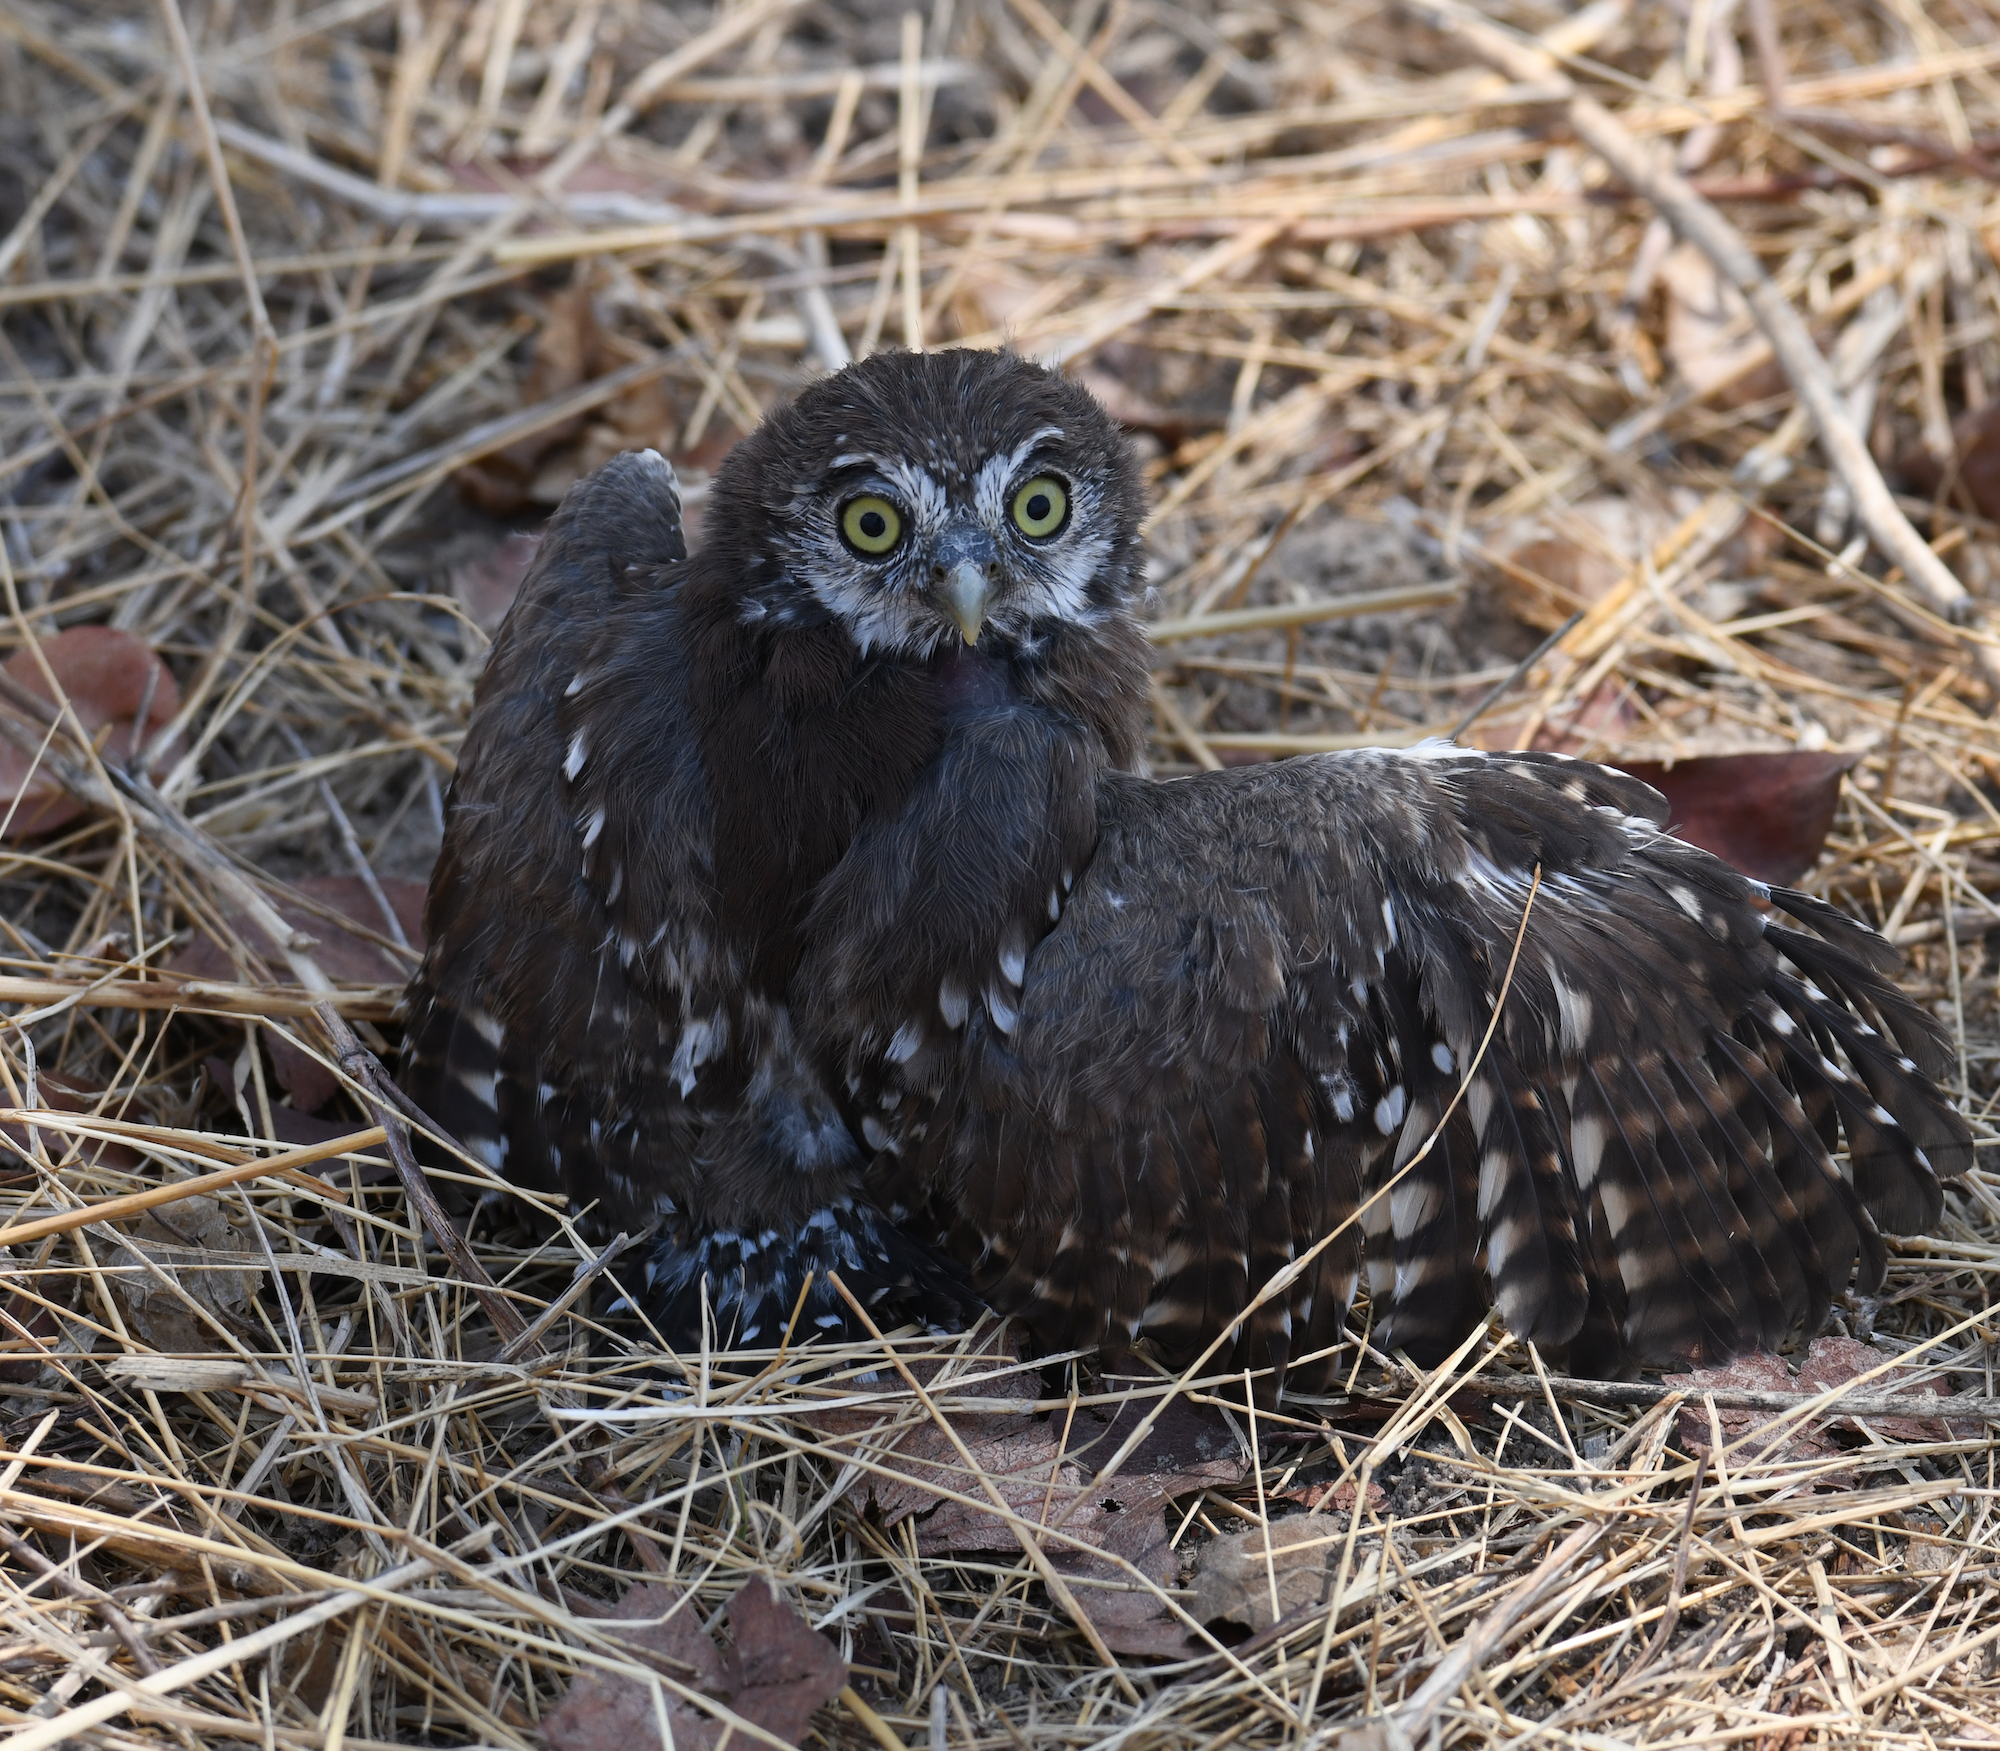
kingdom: Animalia
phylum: Chordata
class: Aves
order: Strigiformes
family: Strigidae
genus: Glaucidium
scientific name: Glaucidium perlatum
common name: Pearl-spotted owlet
